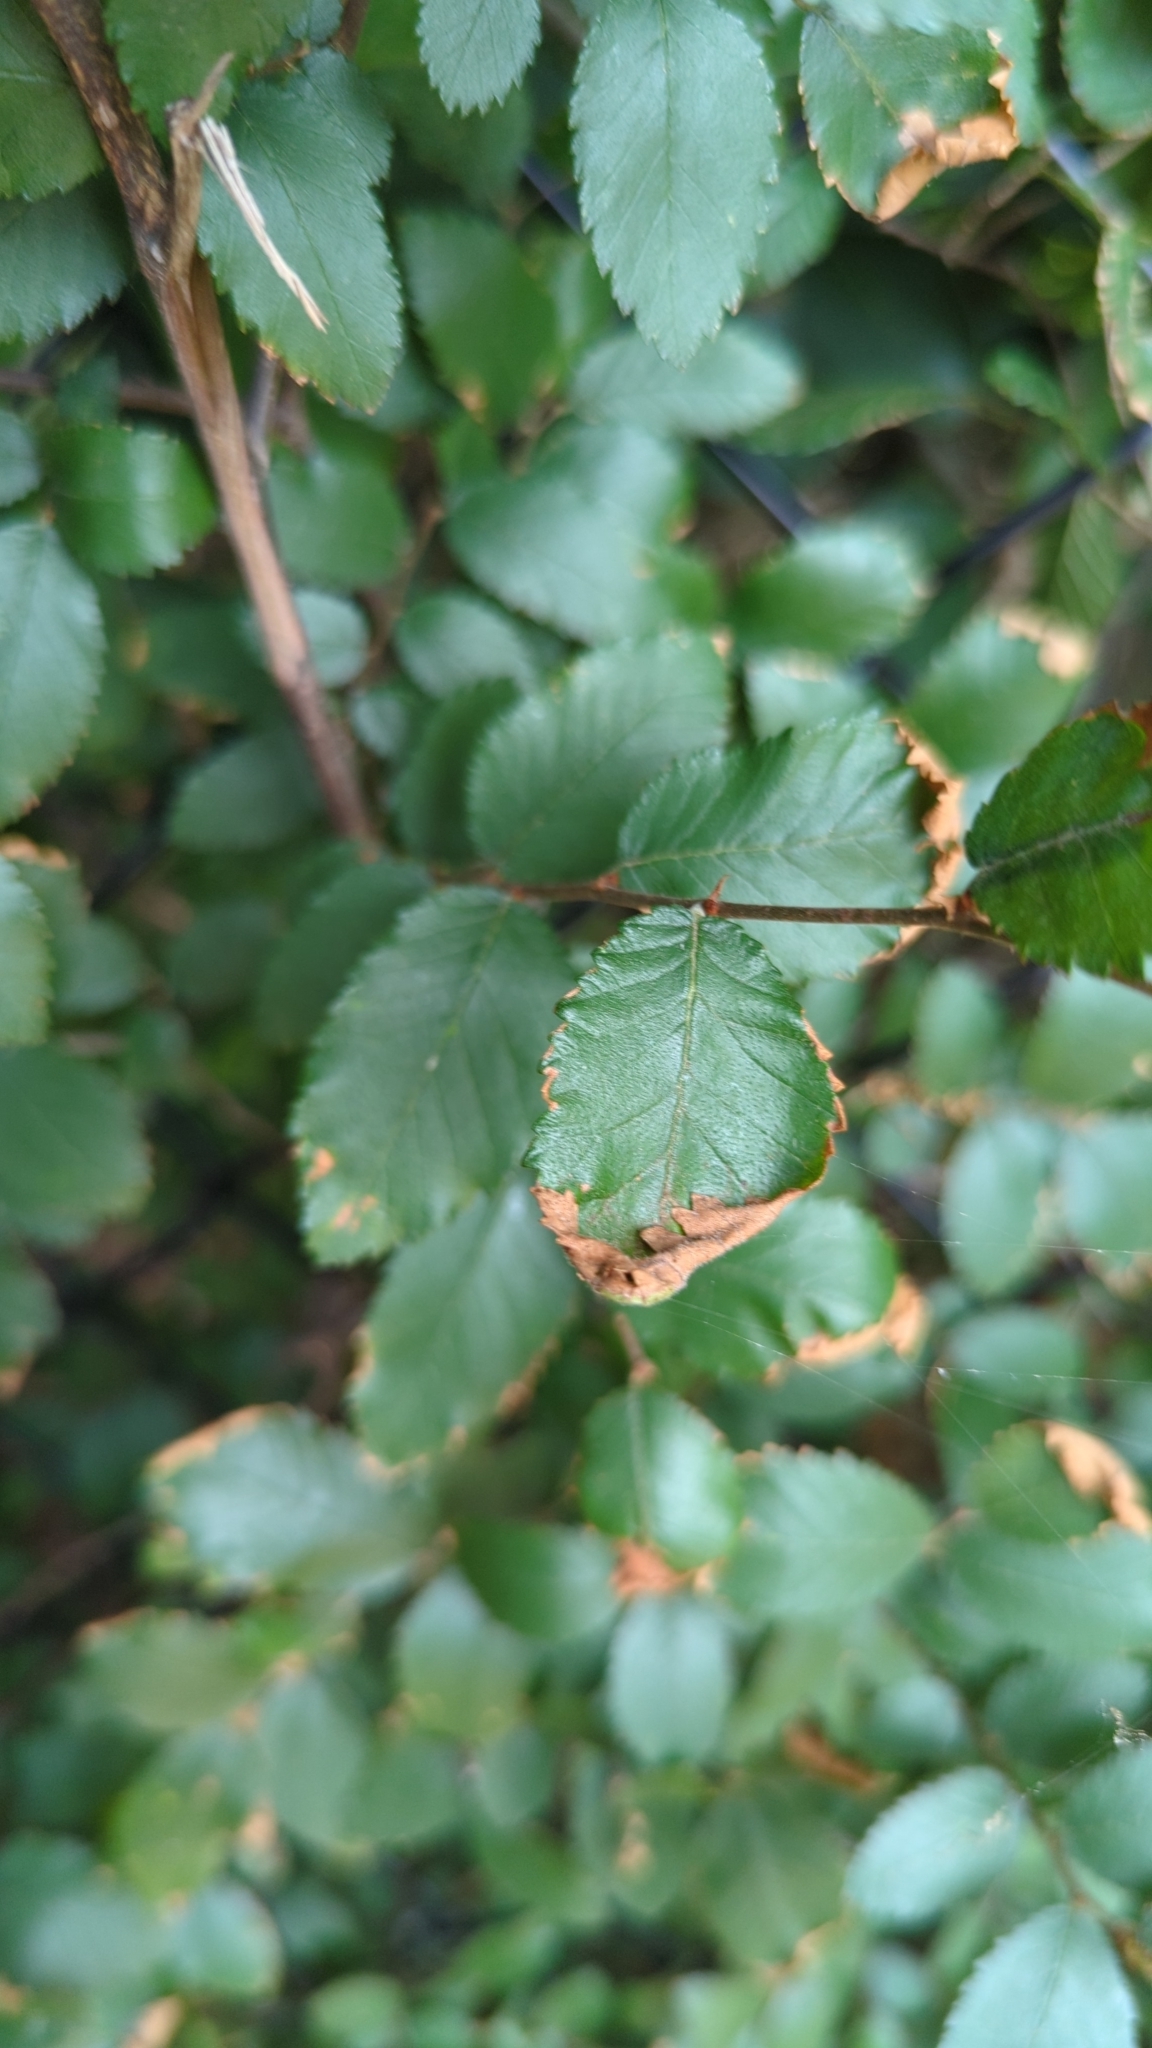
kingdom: Plantae
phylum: Tracheophyta
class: Magnoliopsida
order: Rosales
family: Ulmaceae
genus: Ulmus
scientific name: Ulmus crassifolia
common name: Basket elm
